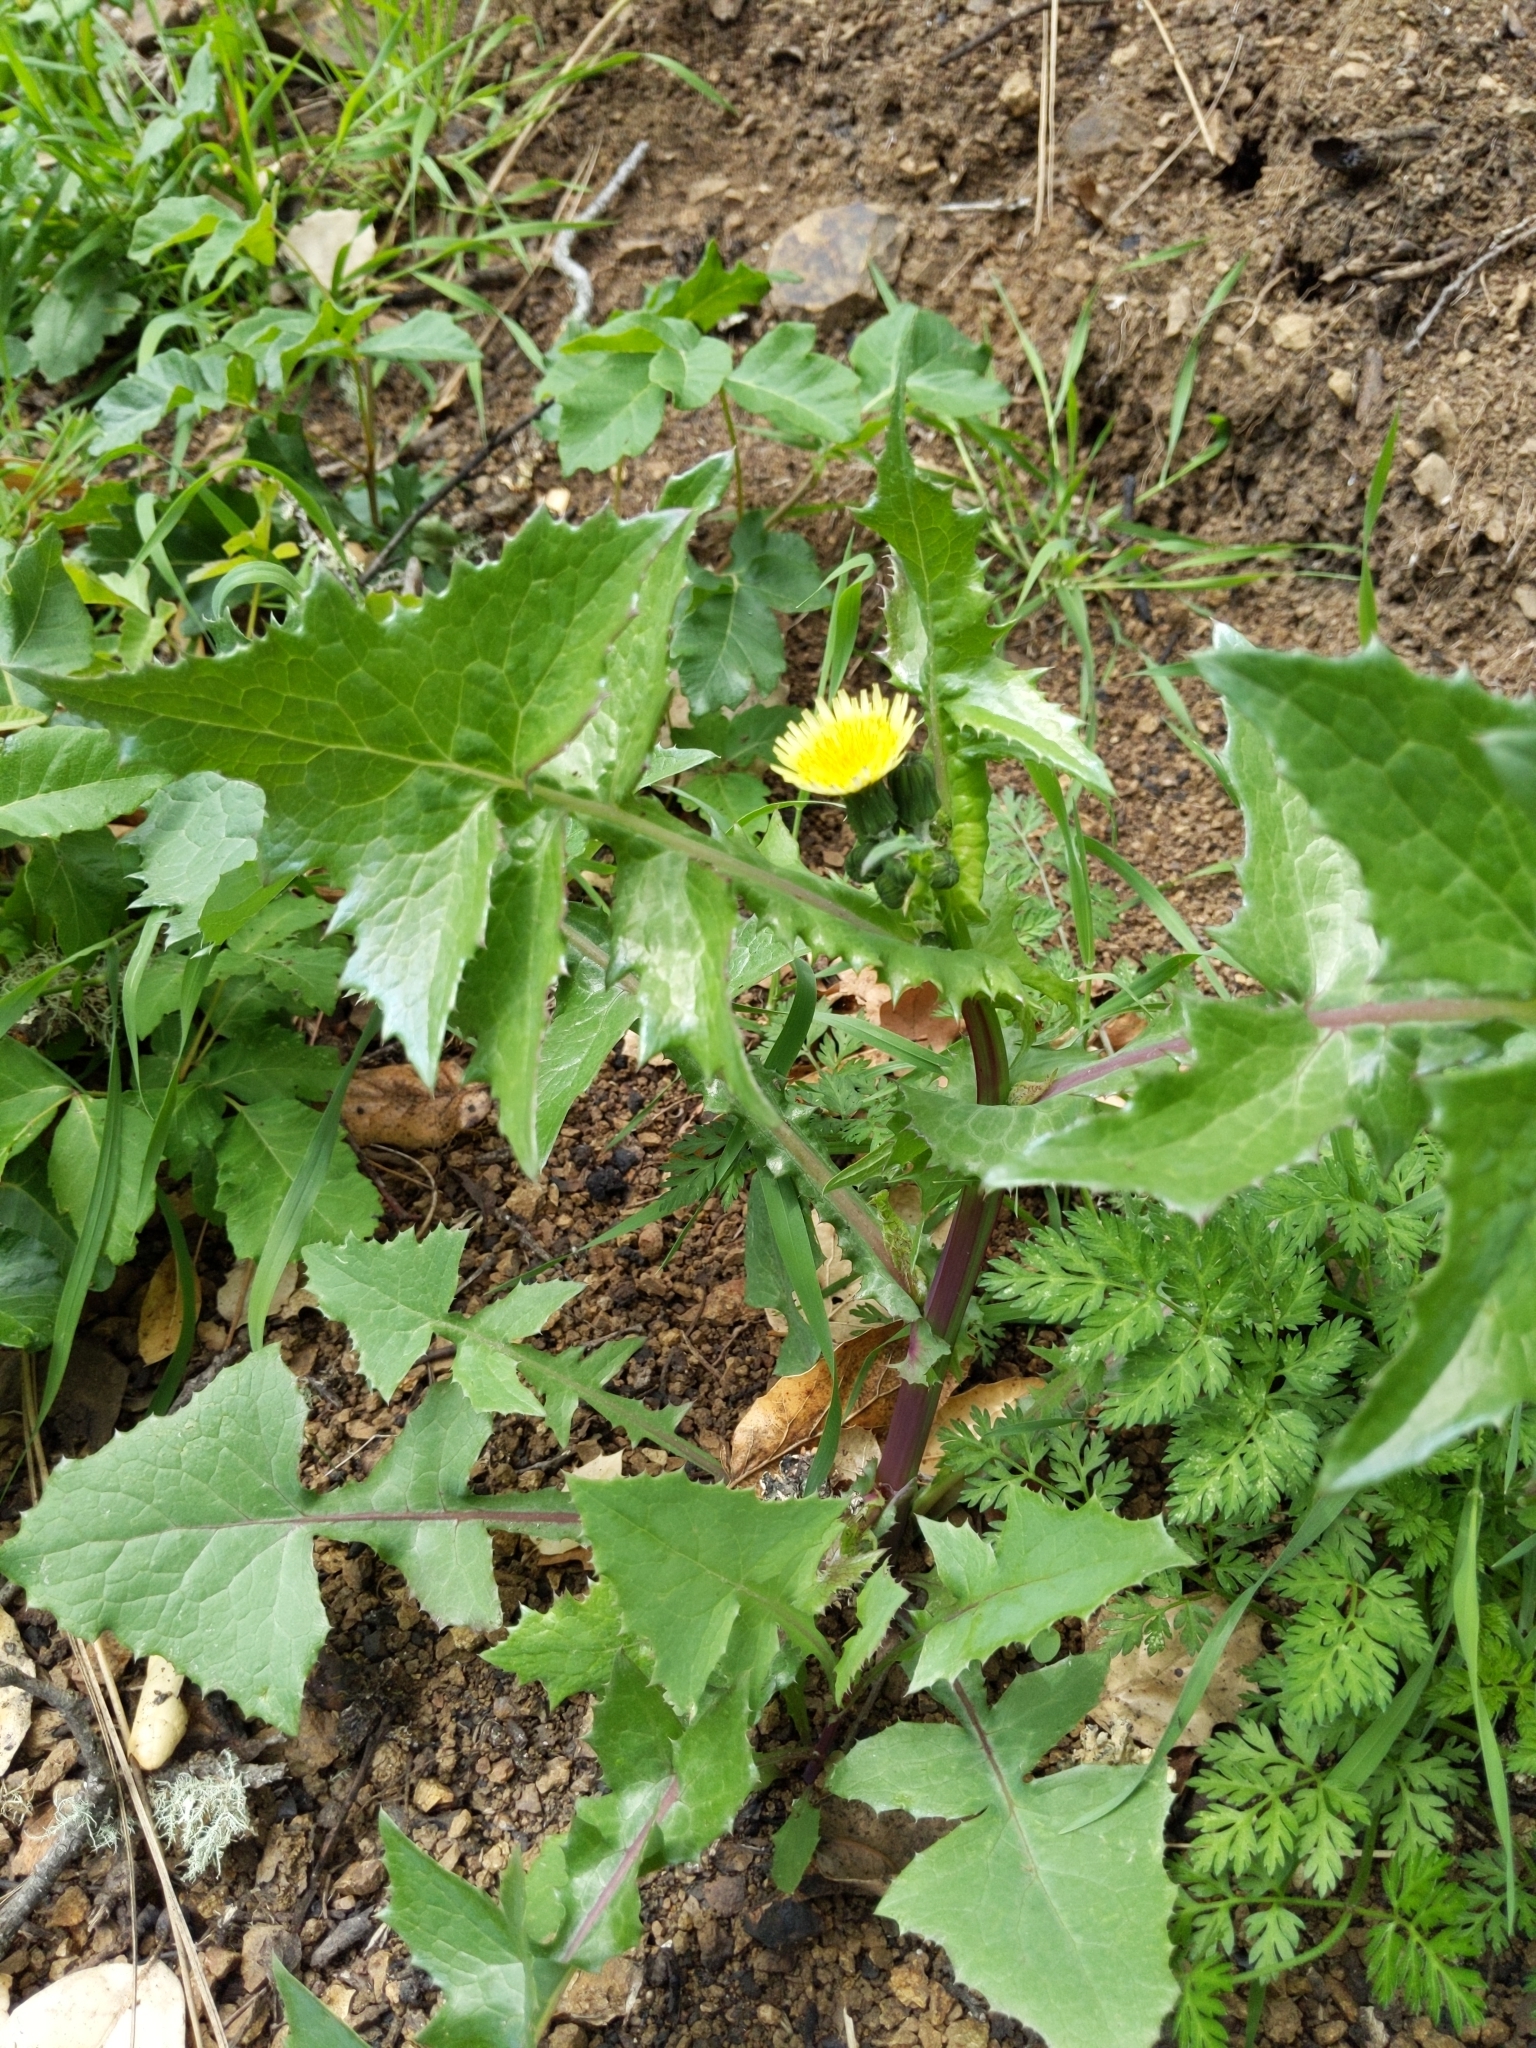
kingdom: Plantae
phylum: Tracheophyta
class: Magnoliopsida
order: Asterales
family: Asteraceae
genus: Sonchus
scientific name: Sonchus oleraceus
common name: Common sowthistle
